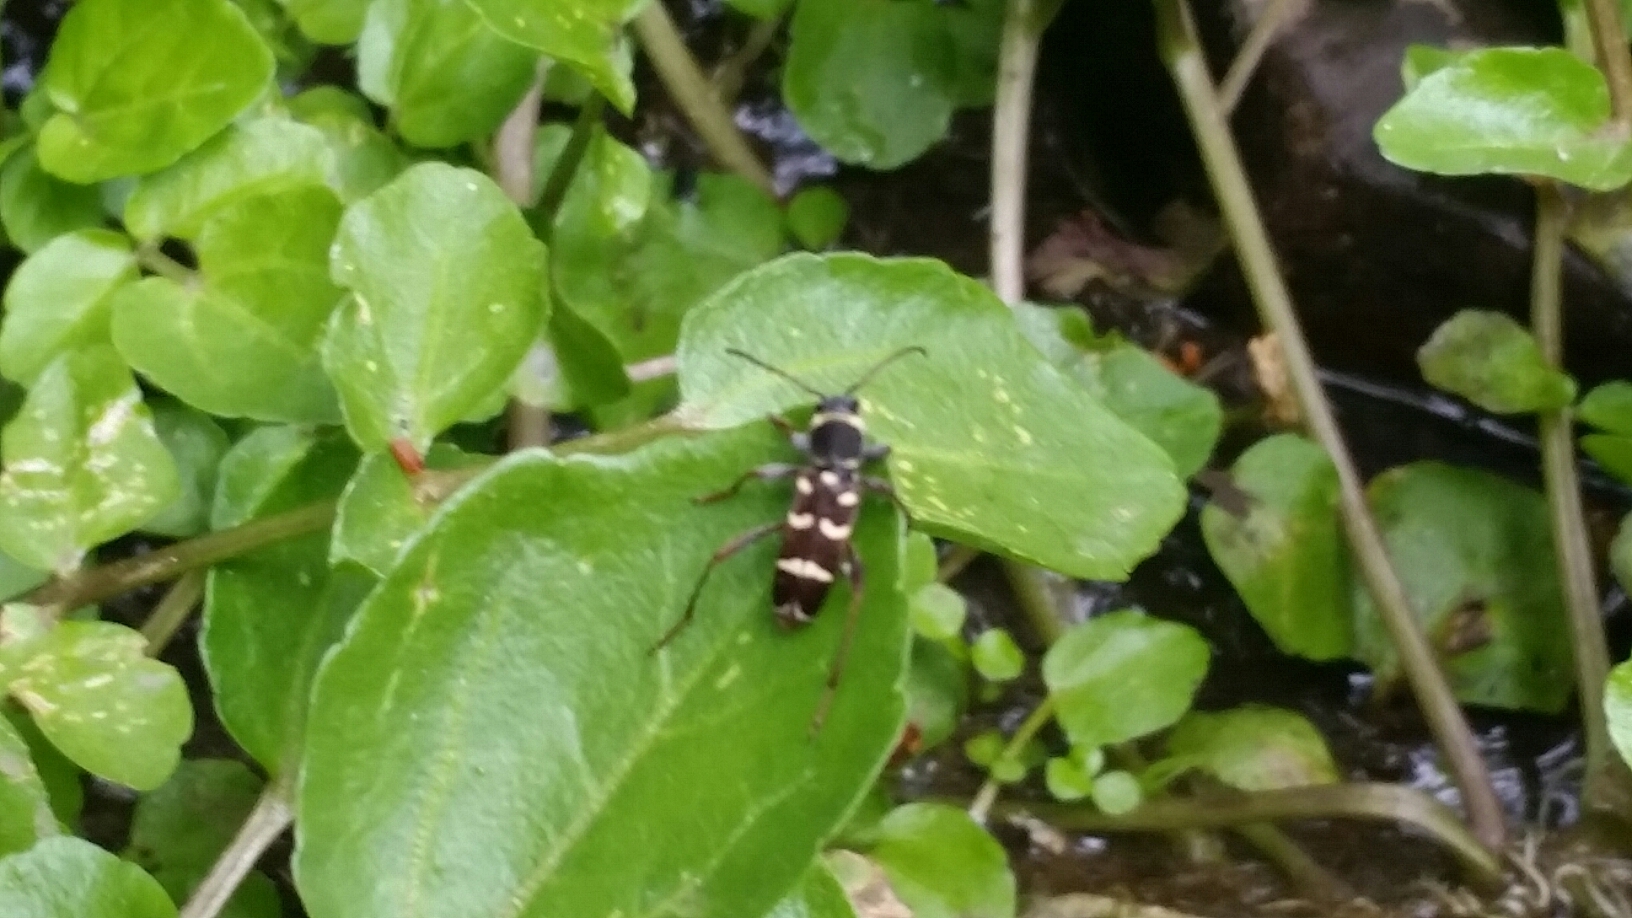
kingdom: Animalia
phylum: Arthropoda
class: Insecta
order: Coleoptera
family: Cerambycidae
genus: Clytus
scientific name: Clytus blaisdelli
